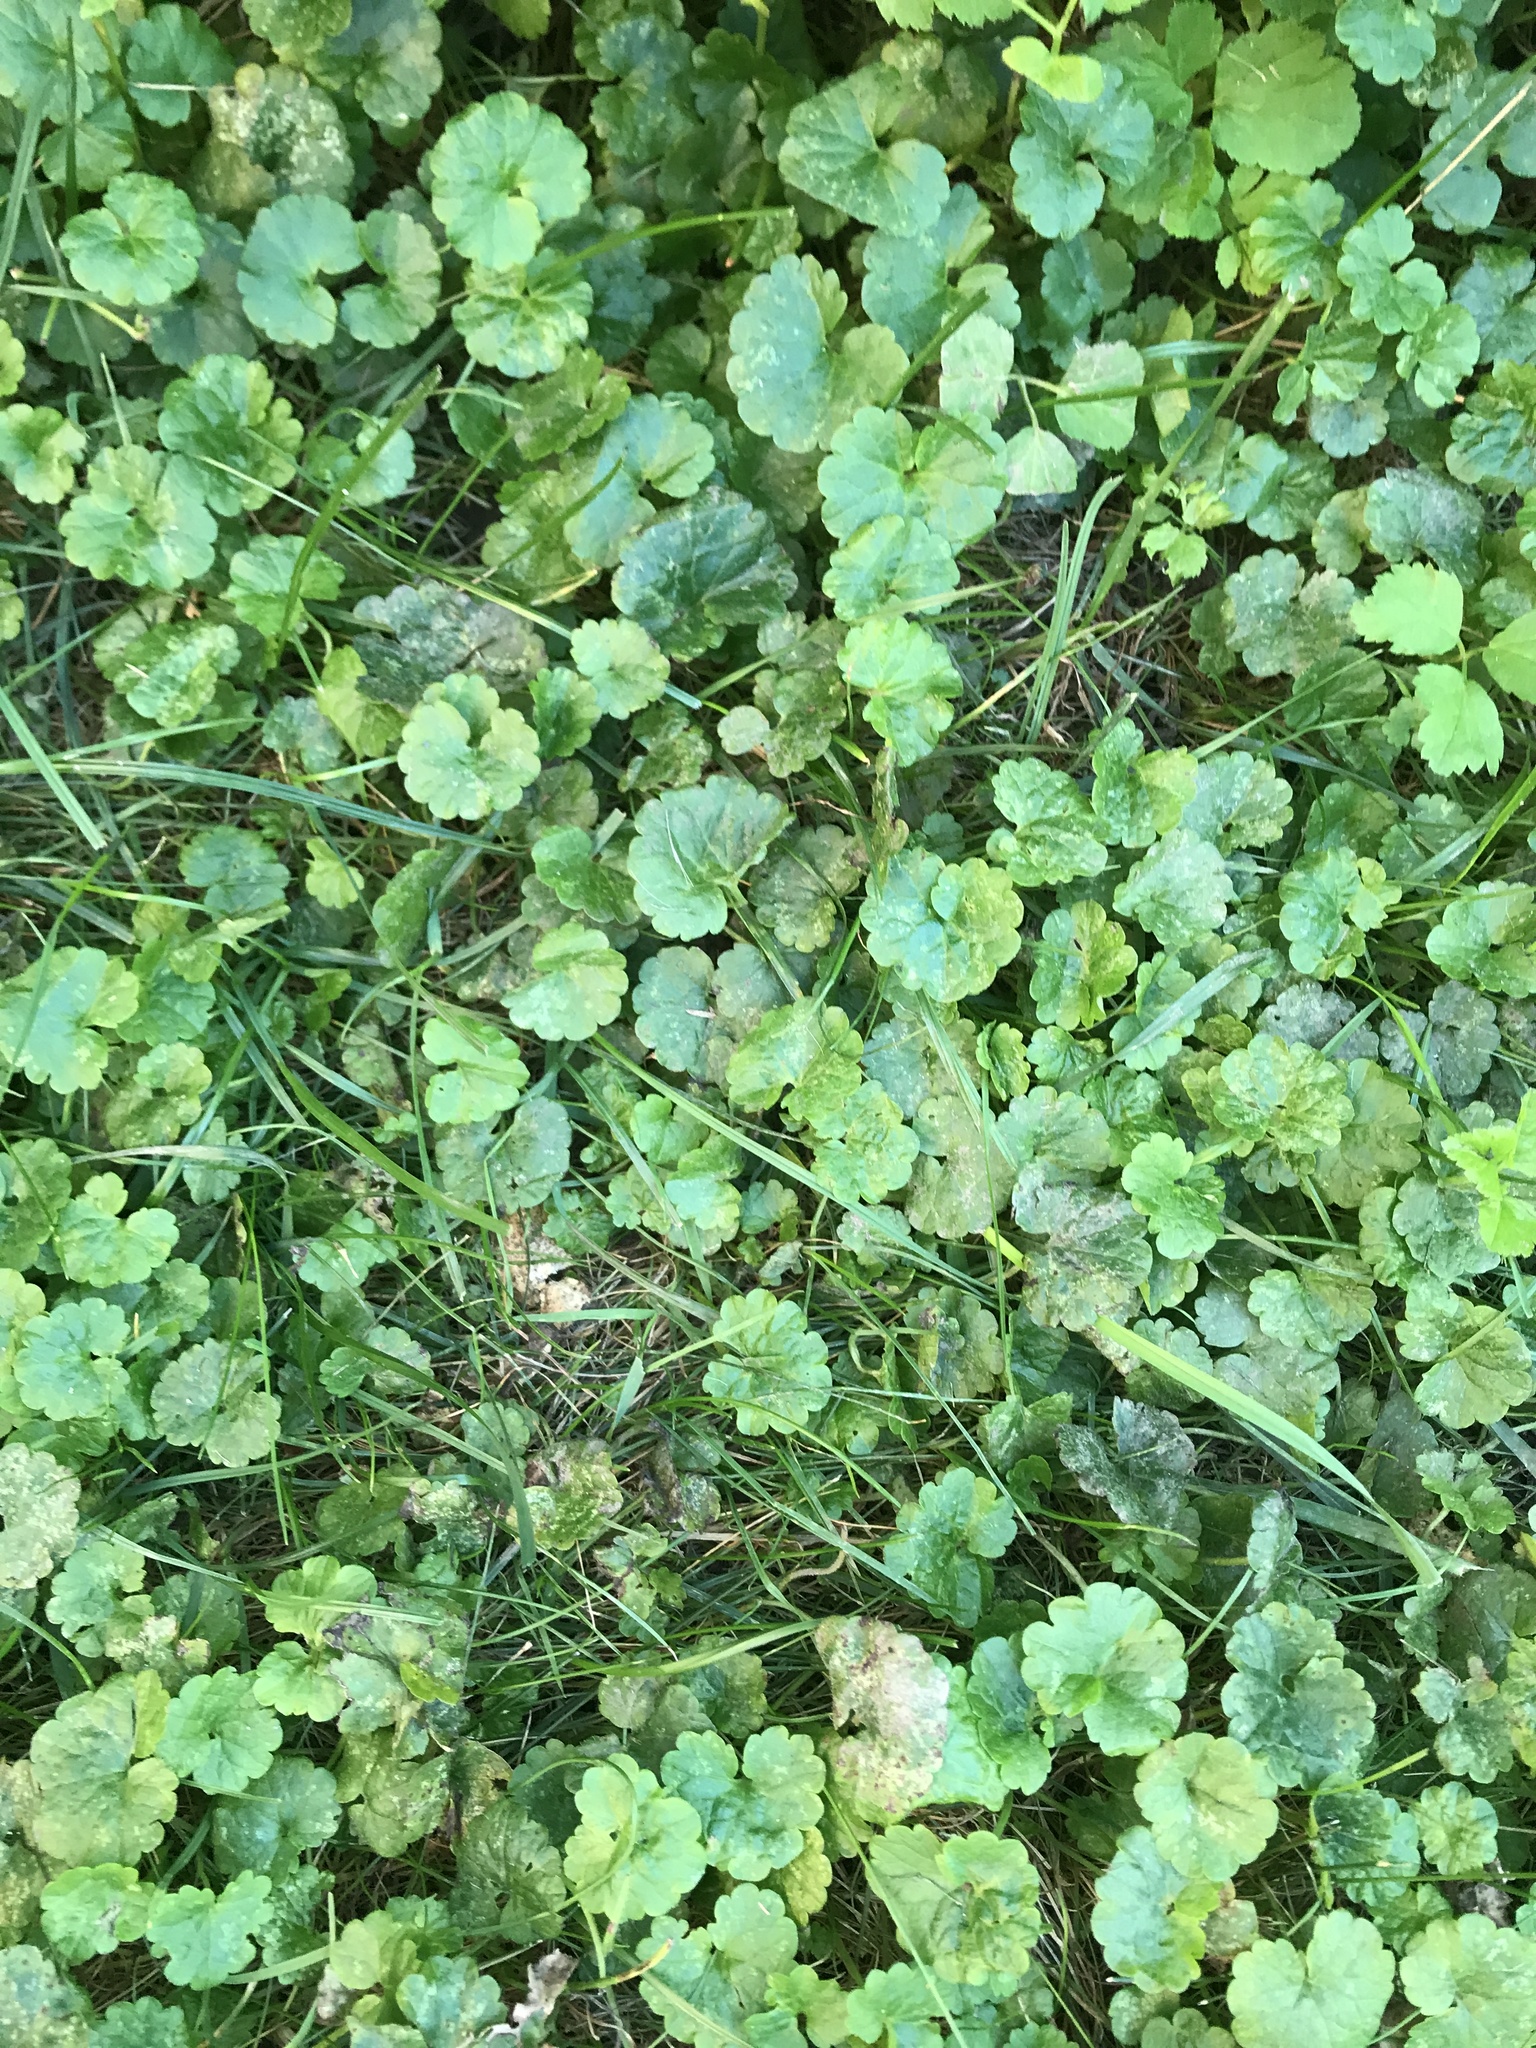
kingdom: Plantae
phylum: Tracheophyta
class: Magnoliopsida
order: Lamiales
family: Lamiaceae
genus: Glechoma
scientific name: Glechoma hederacea
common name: Ground ivy
